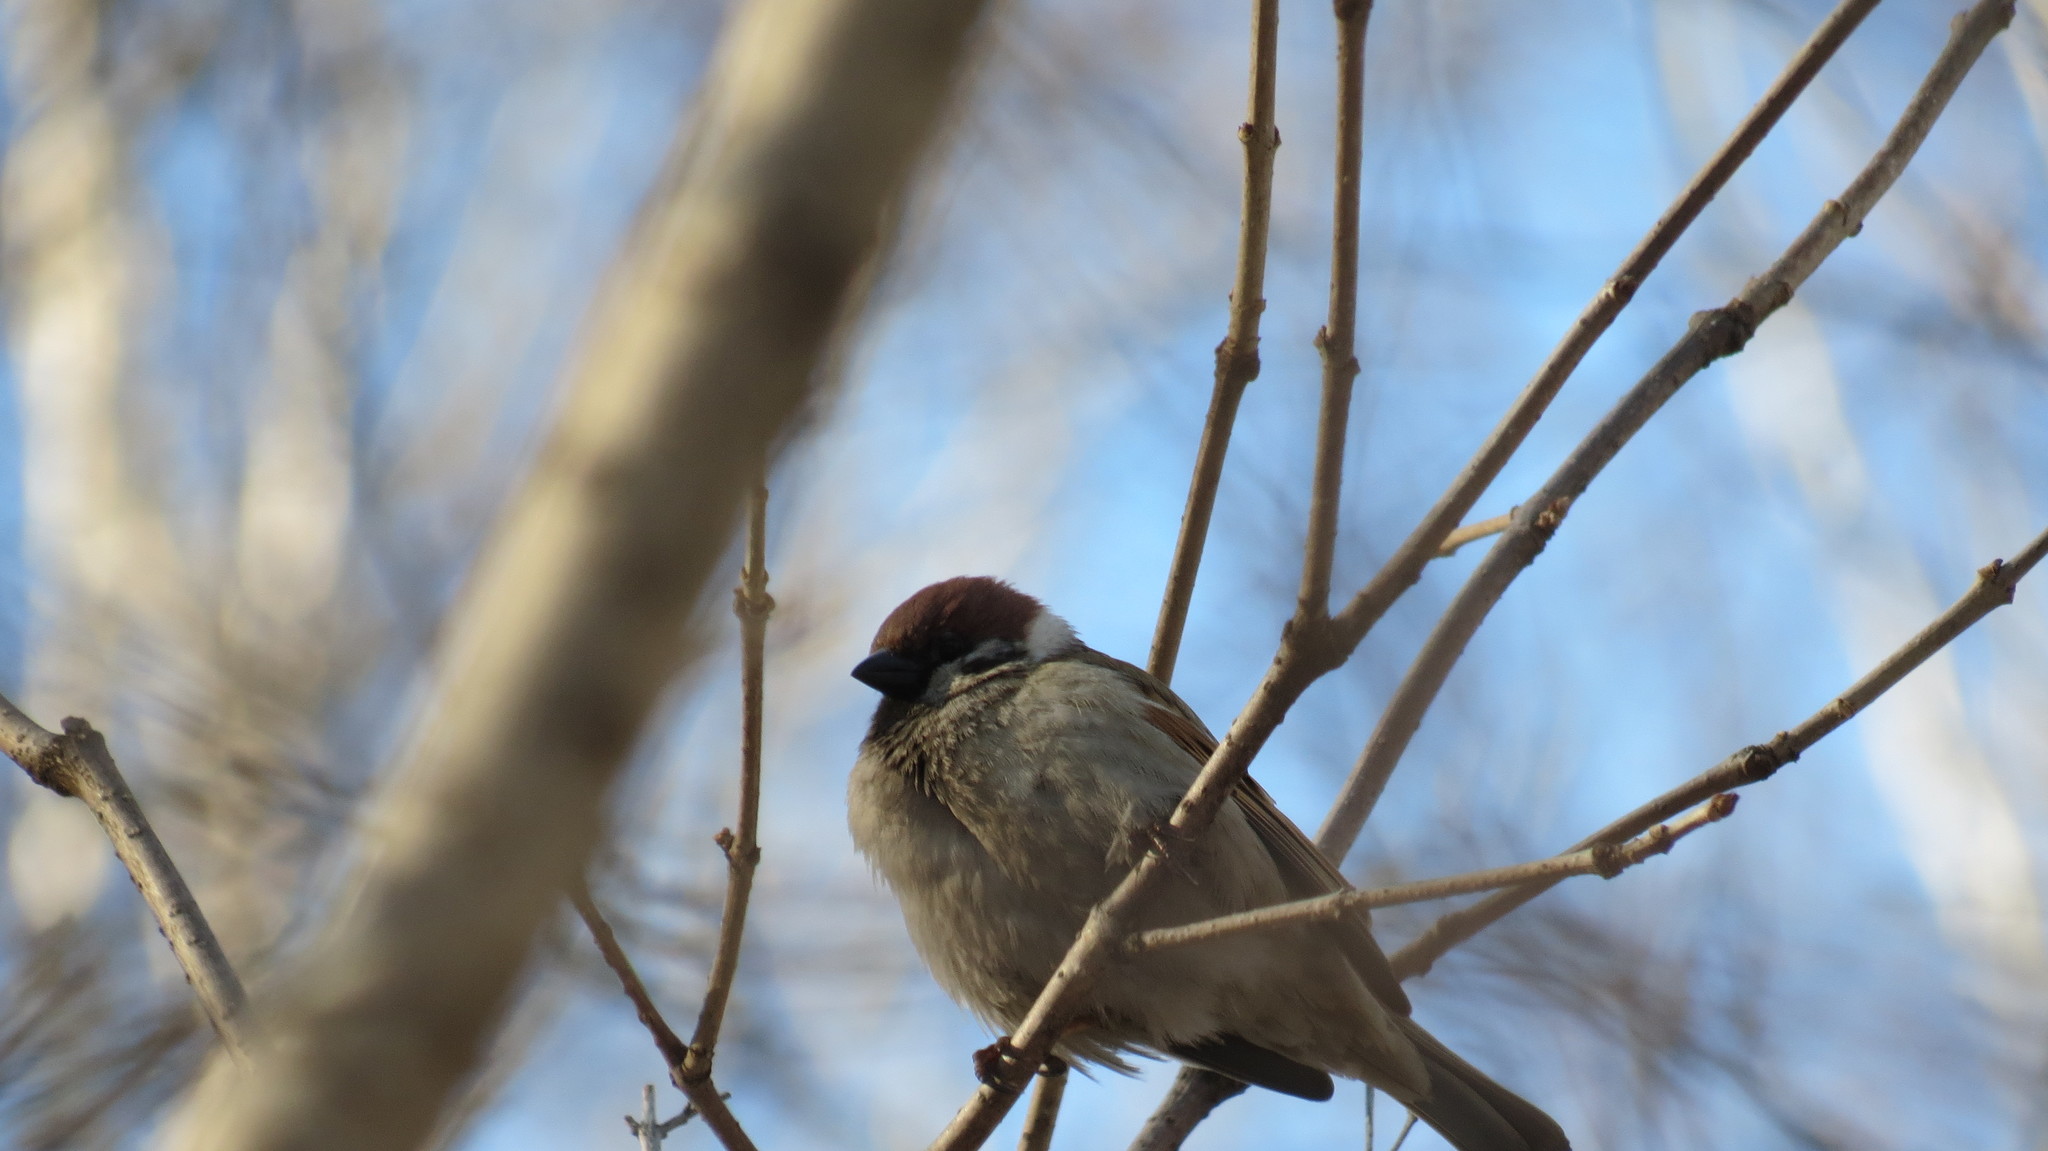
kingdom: Animalia
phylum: Chordata
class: Aves
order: Passeriformes
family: Passeridae
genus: Passer
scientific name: Passer montanus
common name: Eurasian tree sparrow
